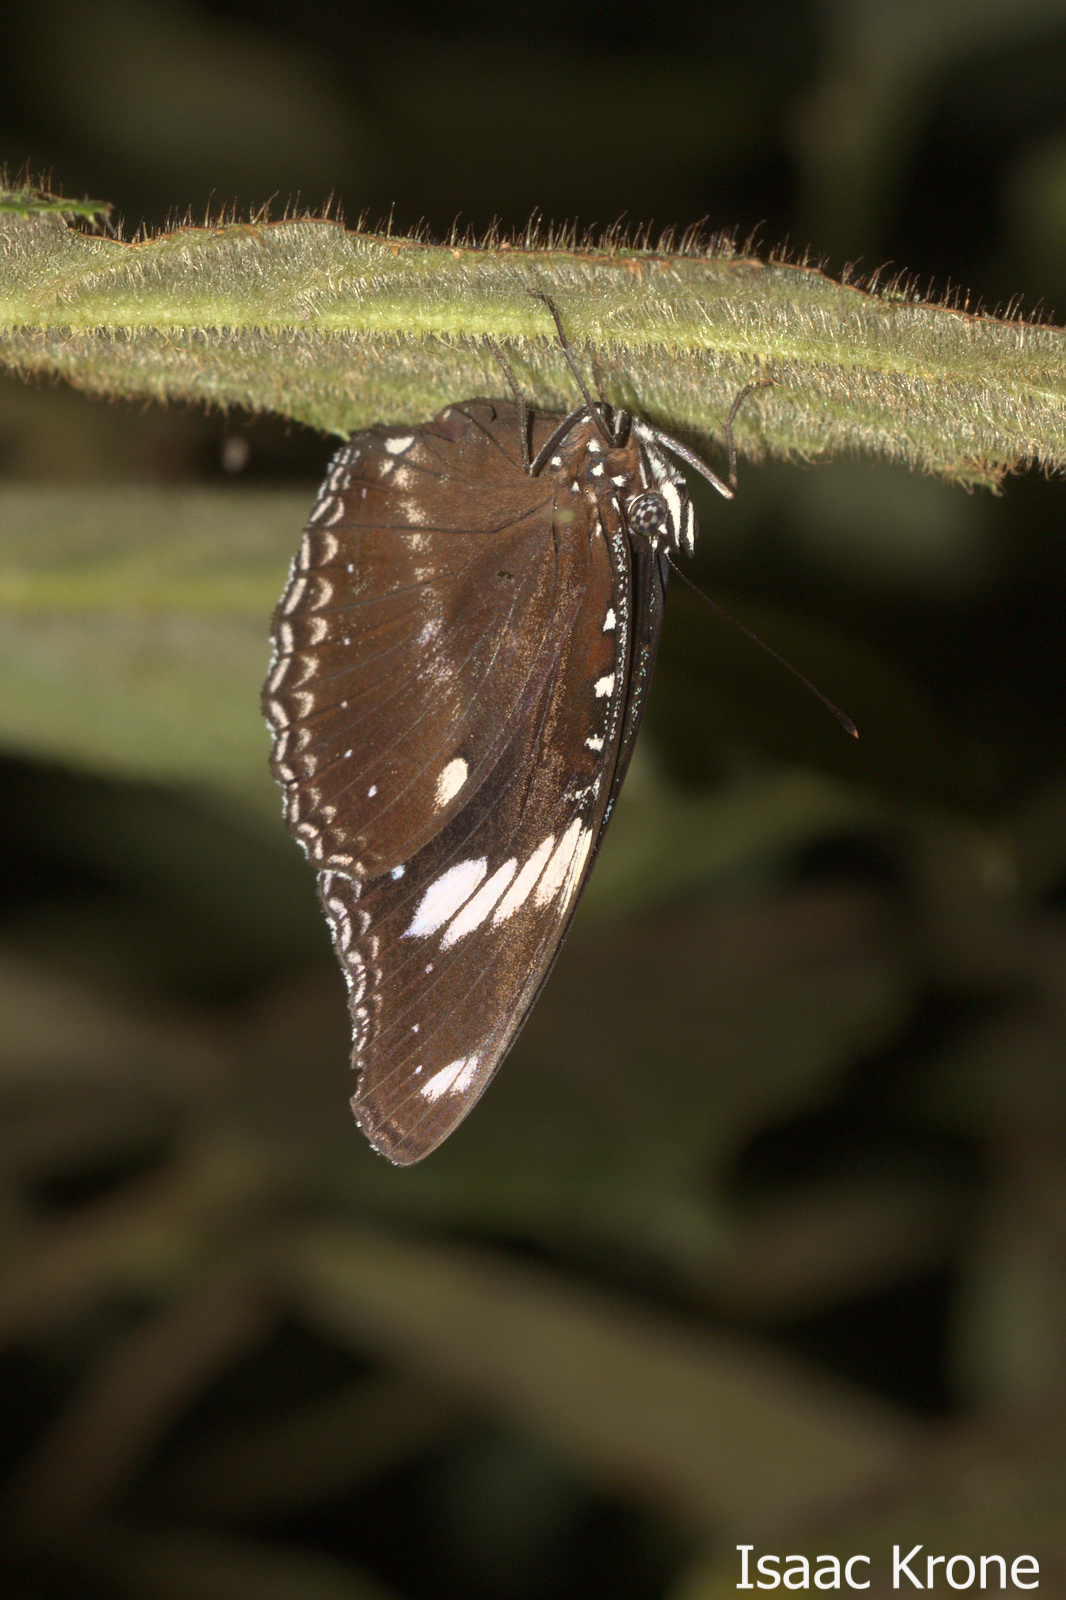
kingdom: Animalia
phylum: Arthropoda
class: Insecta
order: Lepidoptera
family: Nymphalidae
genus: Hypolimnas
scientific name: Hypolimnas bolina
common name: Great eggfly
